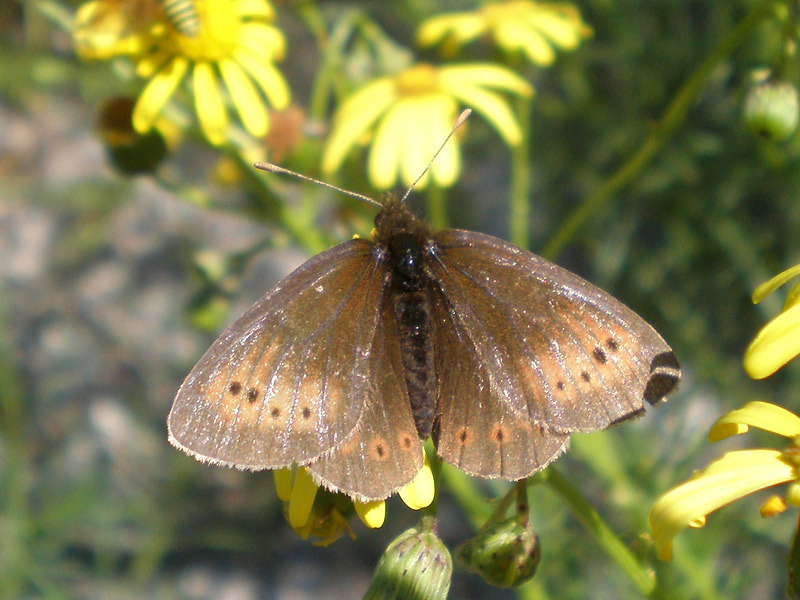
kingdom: Animalia
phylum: Arthropoda
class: Insecta
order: Lepidoptera
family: Nymphalidae
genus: Erebia
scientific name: Erebia epiphron
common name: Mountain ringlet
